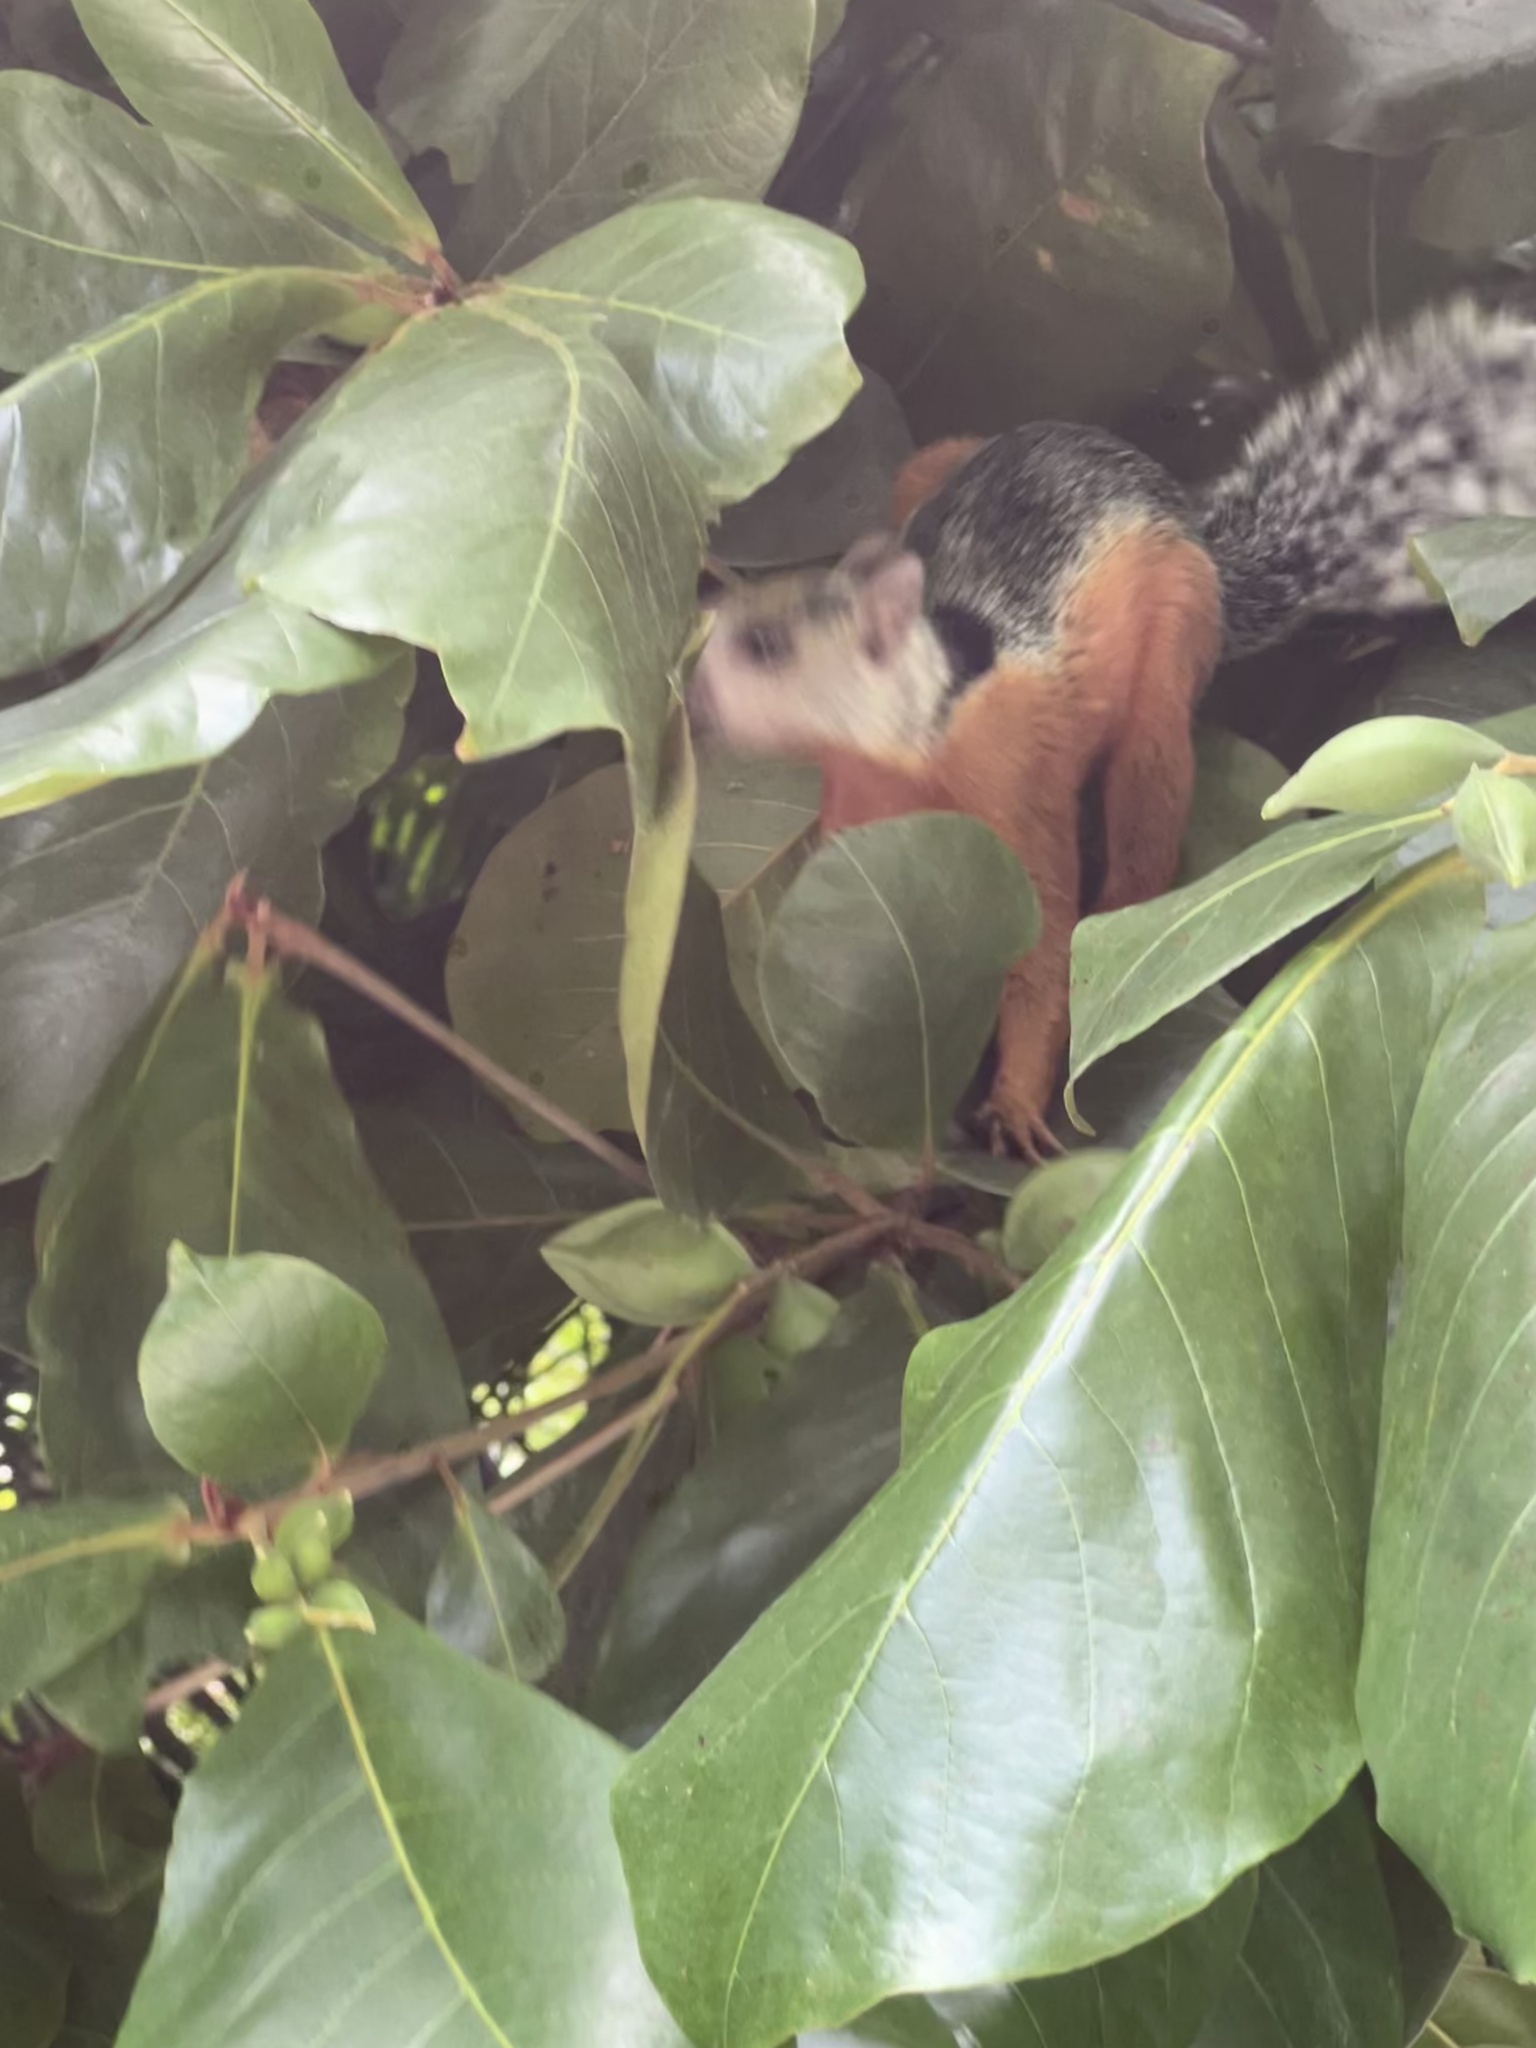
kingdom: Animalia
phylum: Chordata
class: Mammalia
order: Rodentia
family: Sciuridae
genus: Sciurus
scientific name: Sciurus variegatoides
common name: Variegated squirrel
